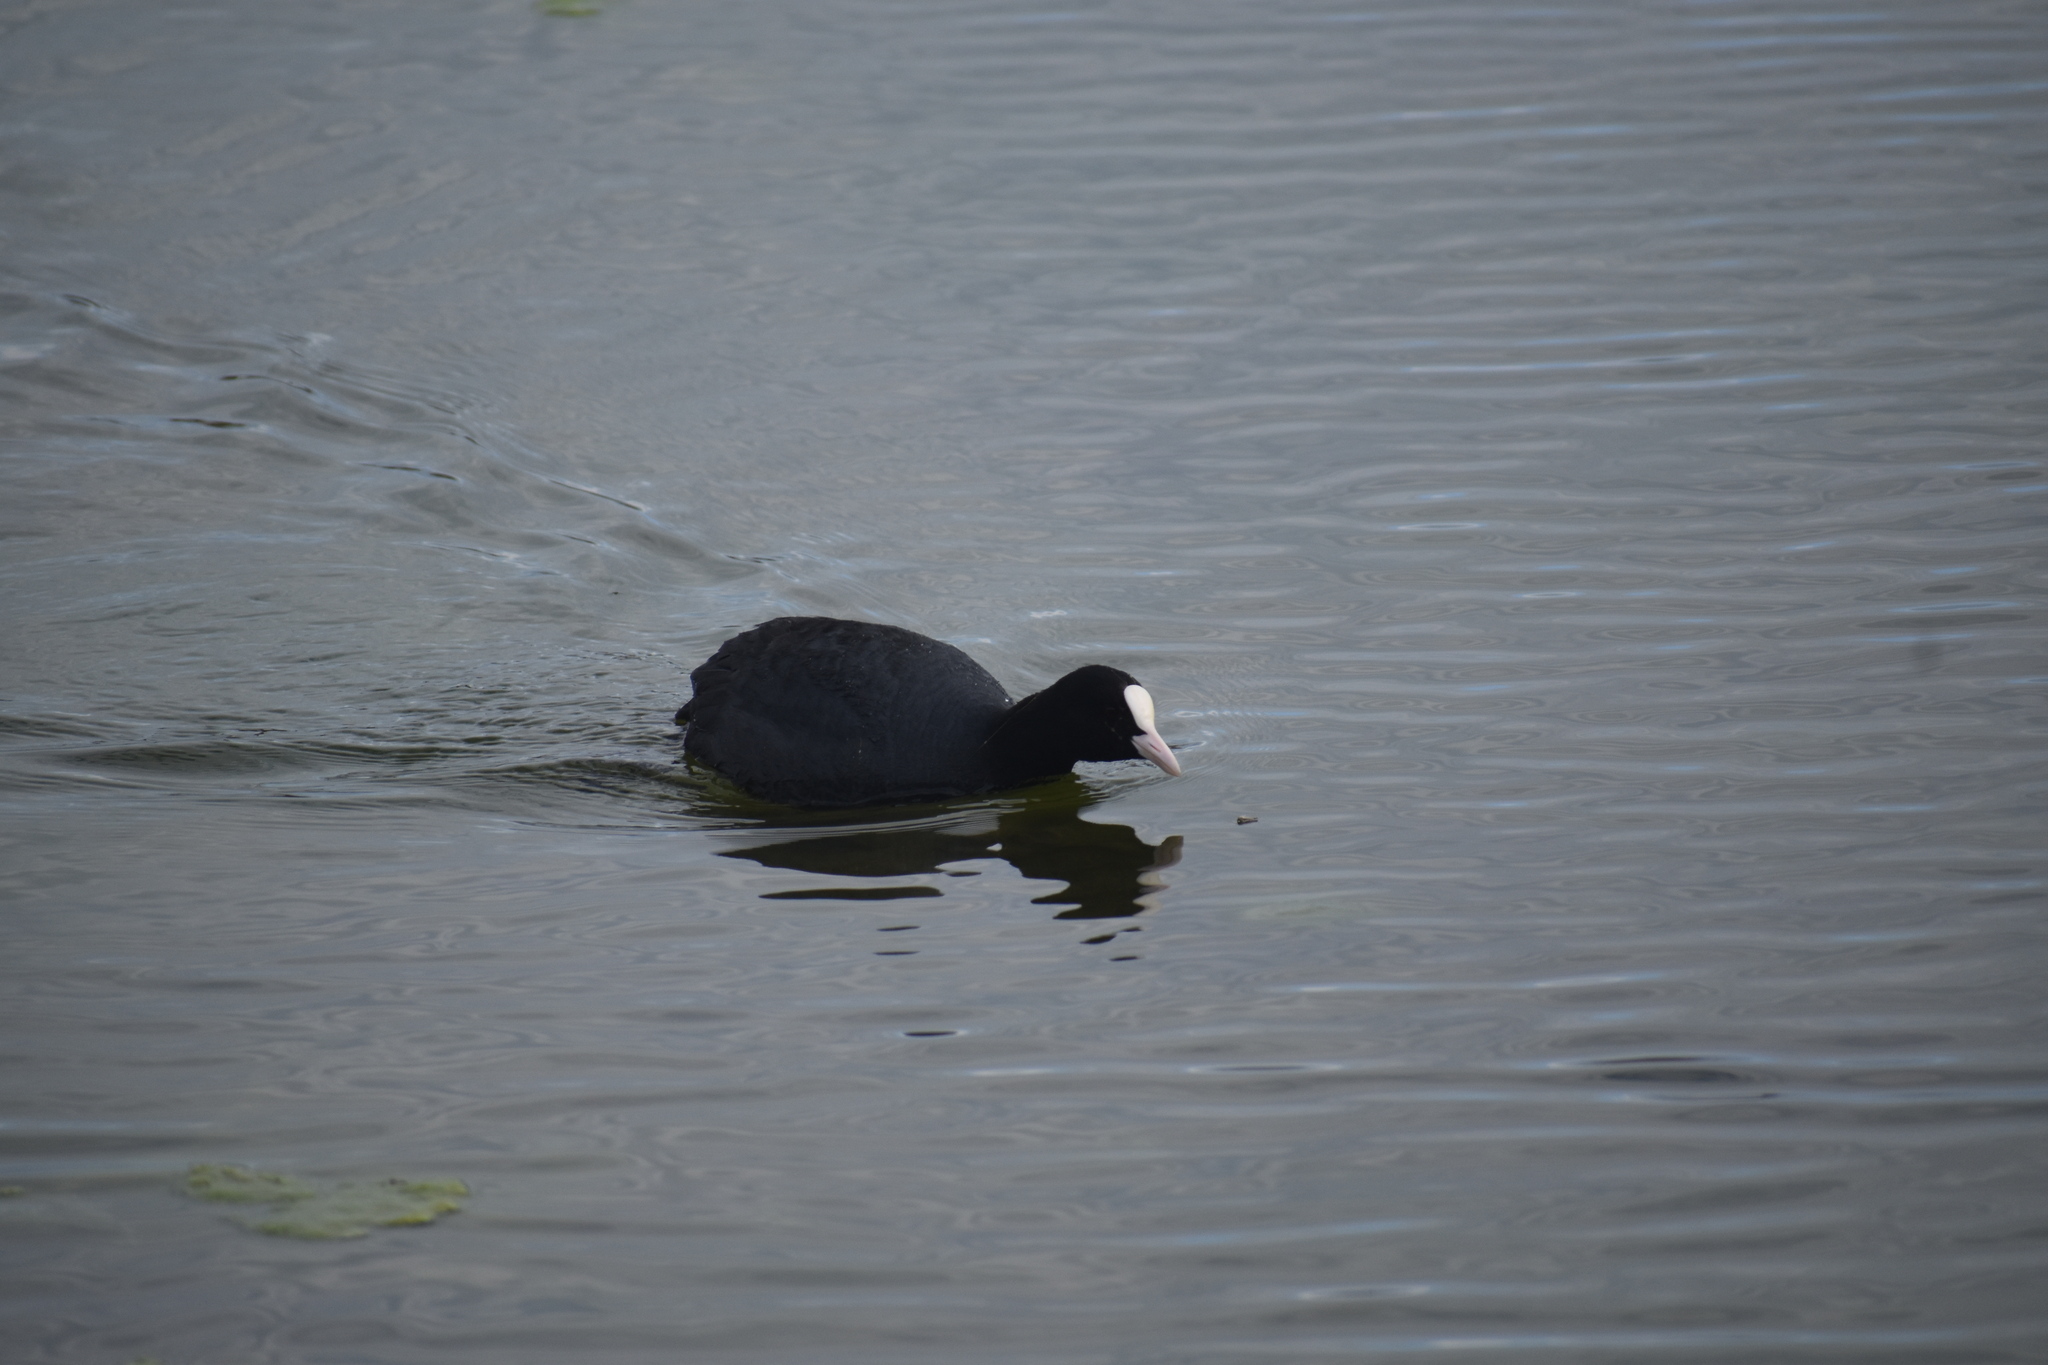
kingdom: Animalia
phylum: Chordata
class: Aves
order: Gruiformes
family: Rallidae
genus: Fulica
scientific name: Fulica atra
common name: Eurasian coot
